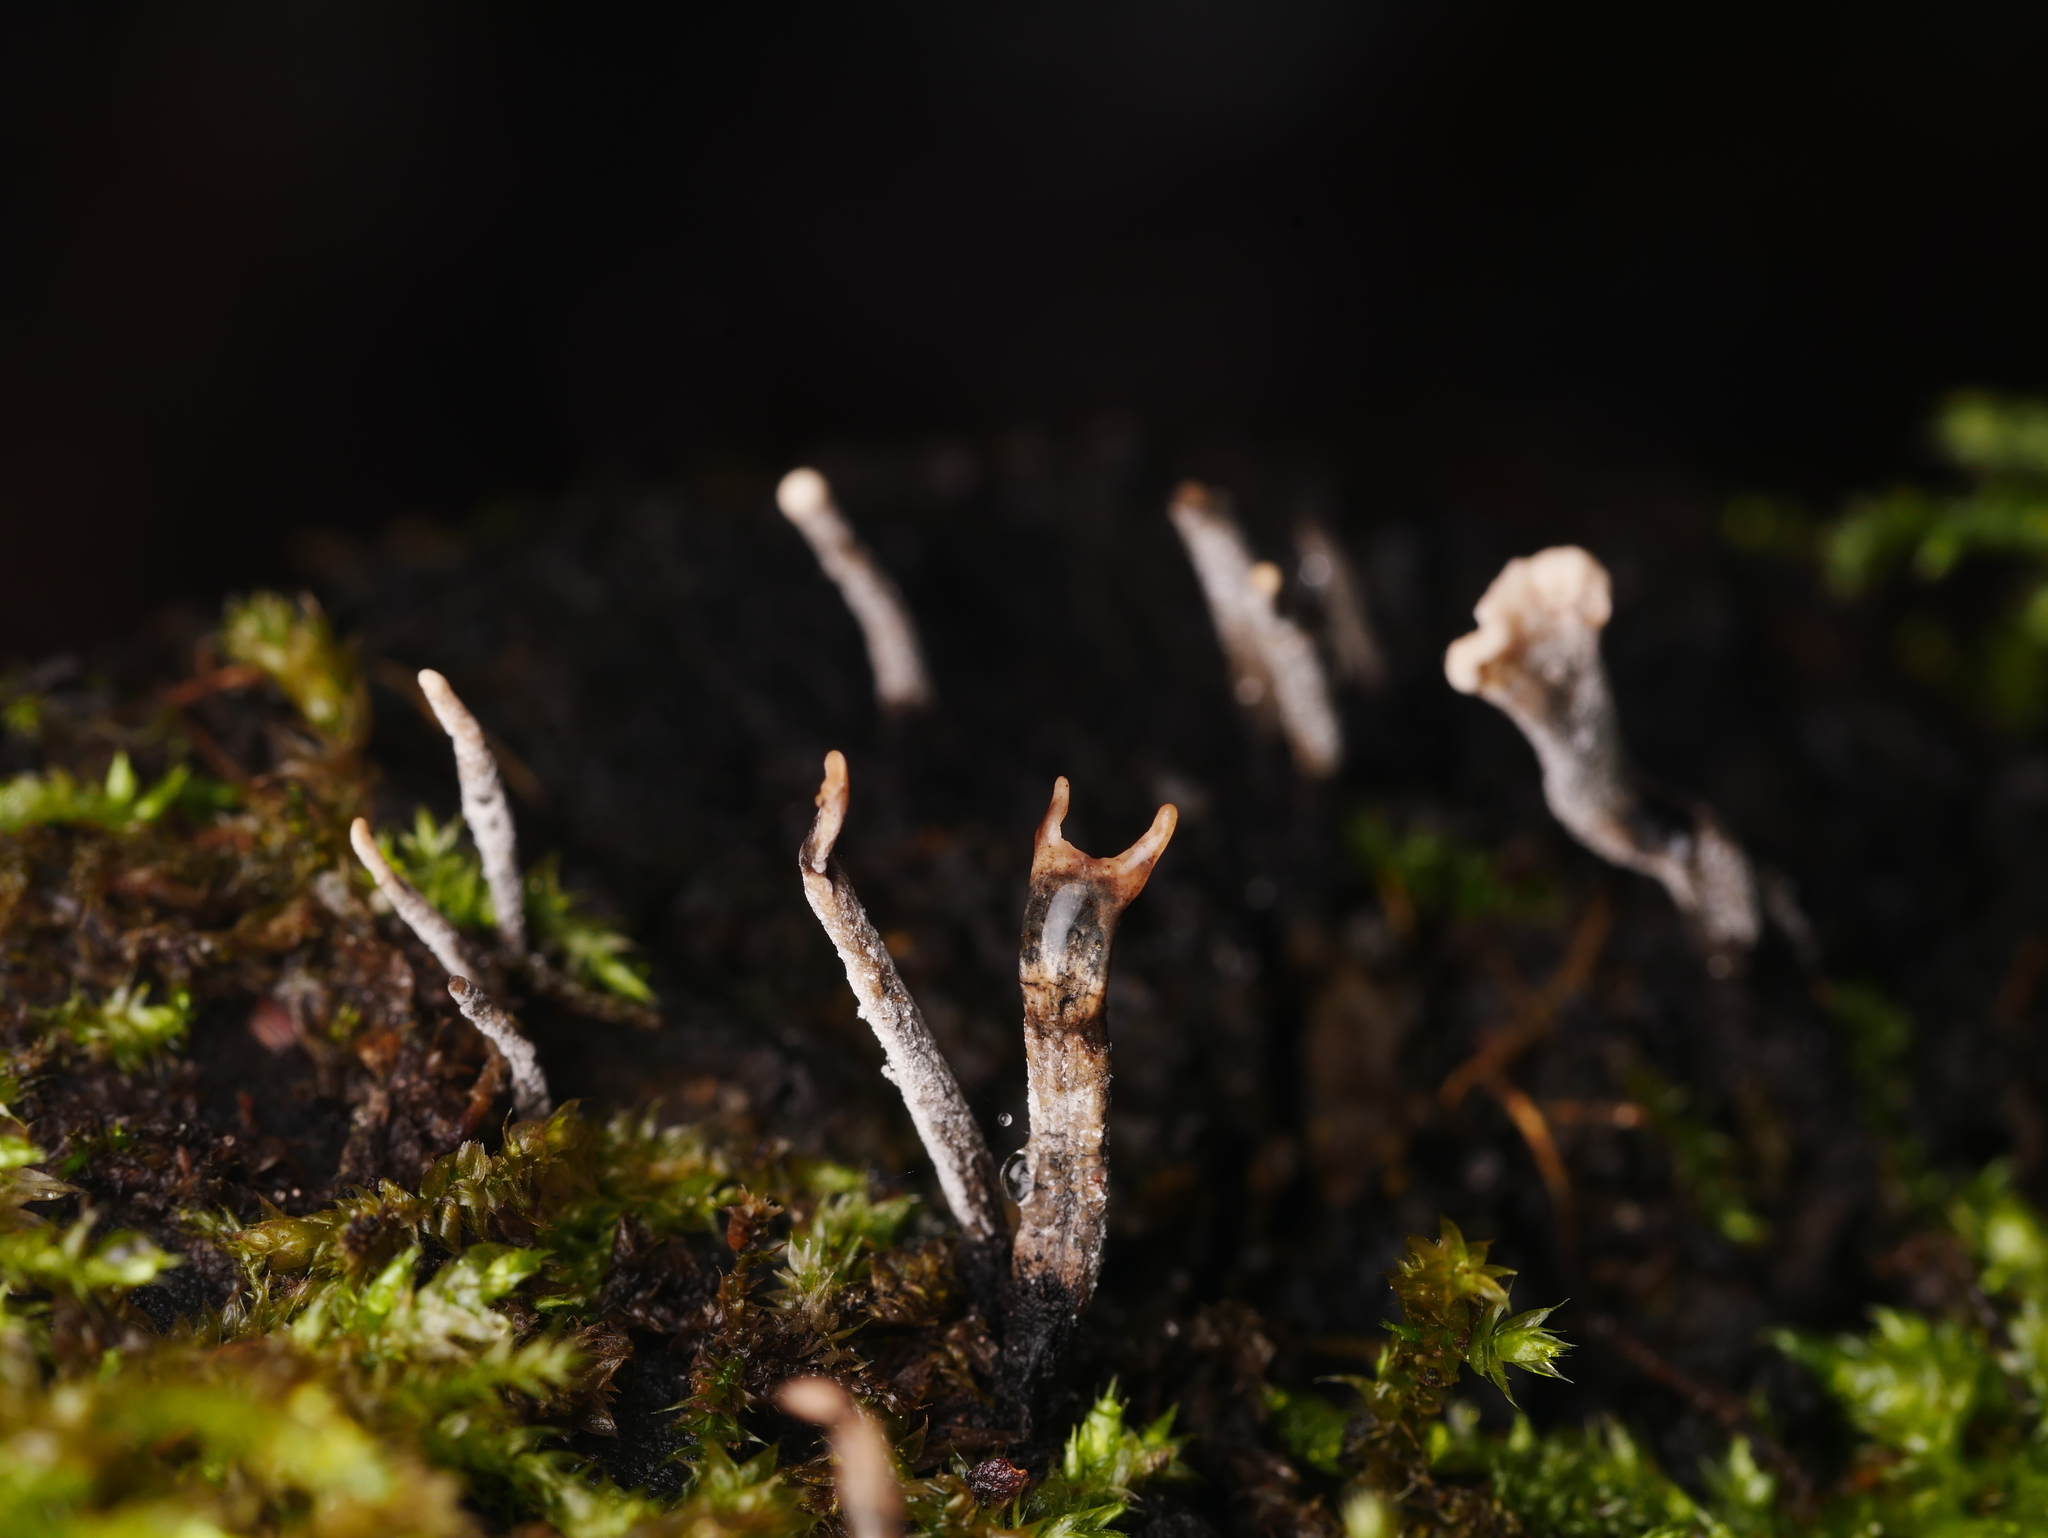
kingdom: Fungi
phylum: Ascomycota
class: Sordariomycetes
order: Xylariales
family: Xylariaceae
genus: Xylaria
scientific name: Xylaria hypoxylon
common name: Candle-snuff fungus
